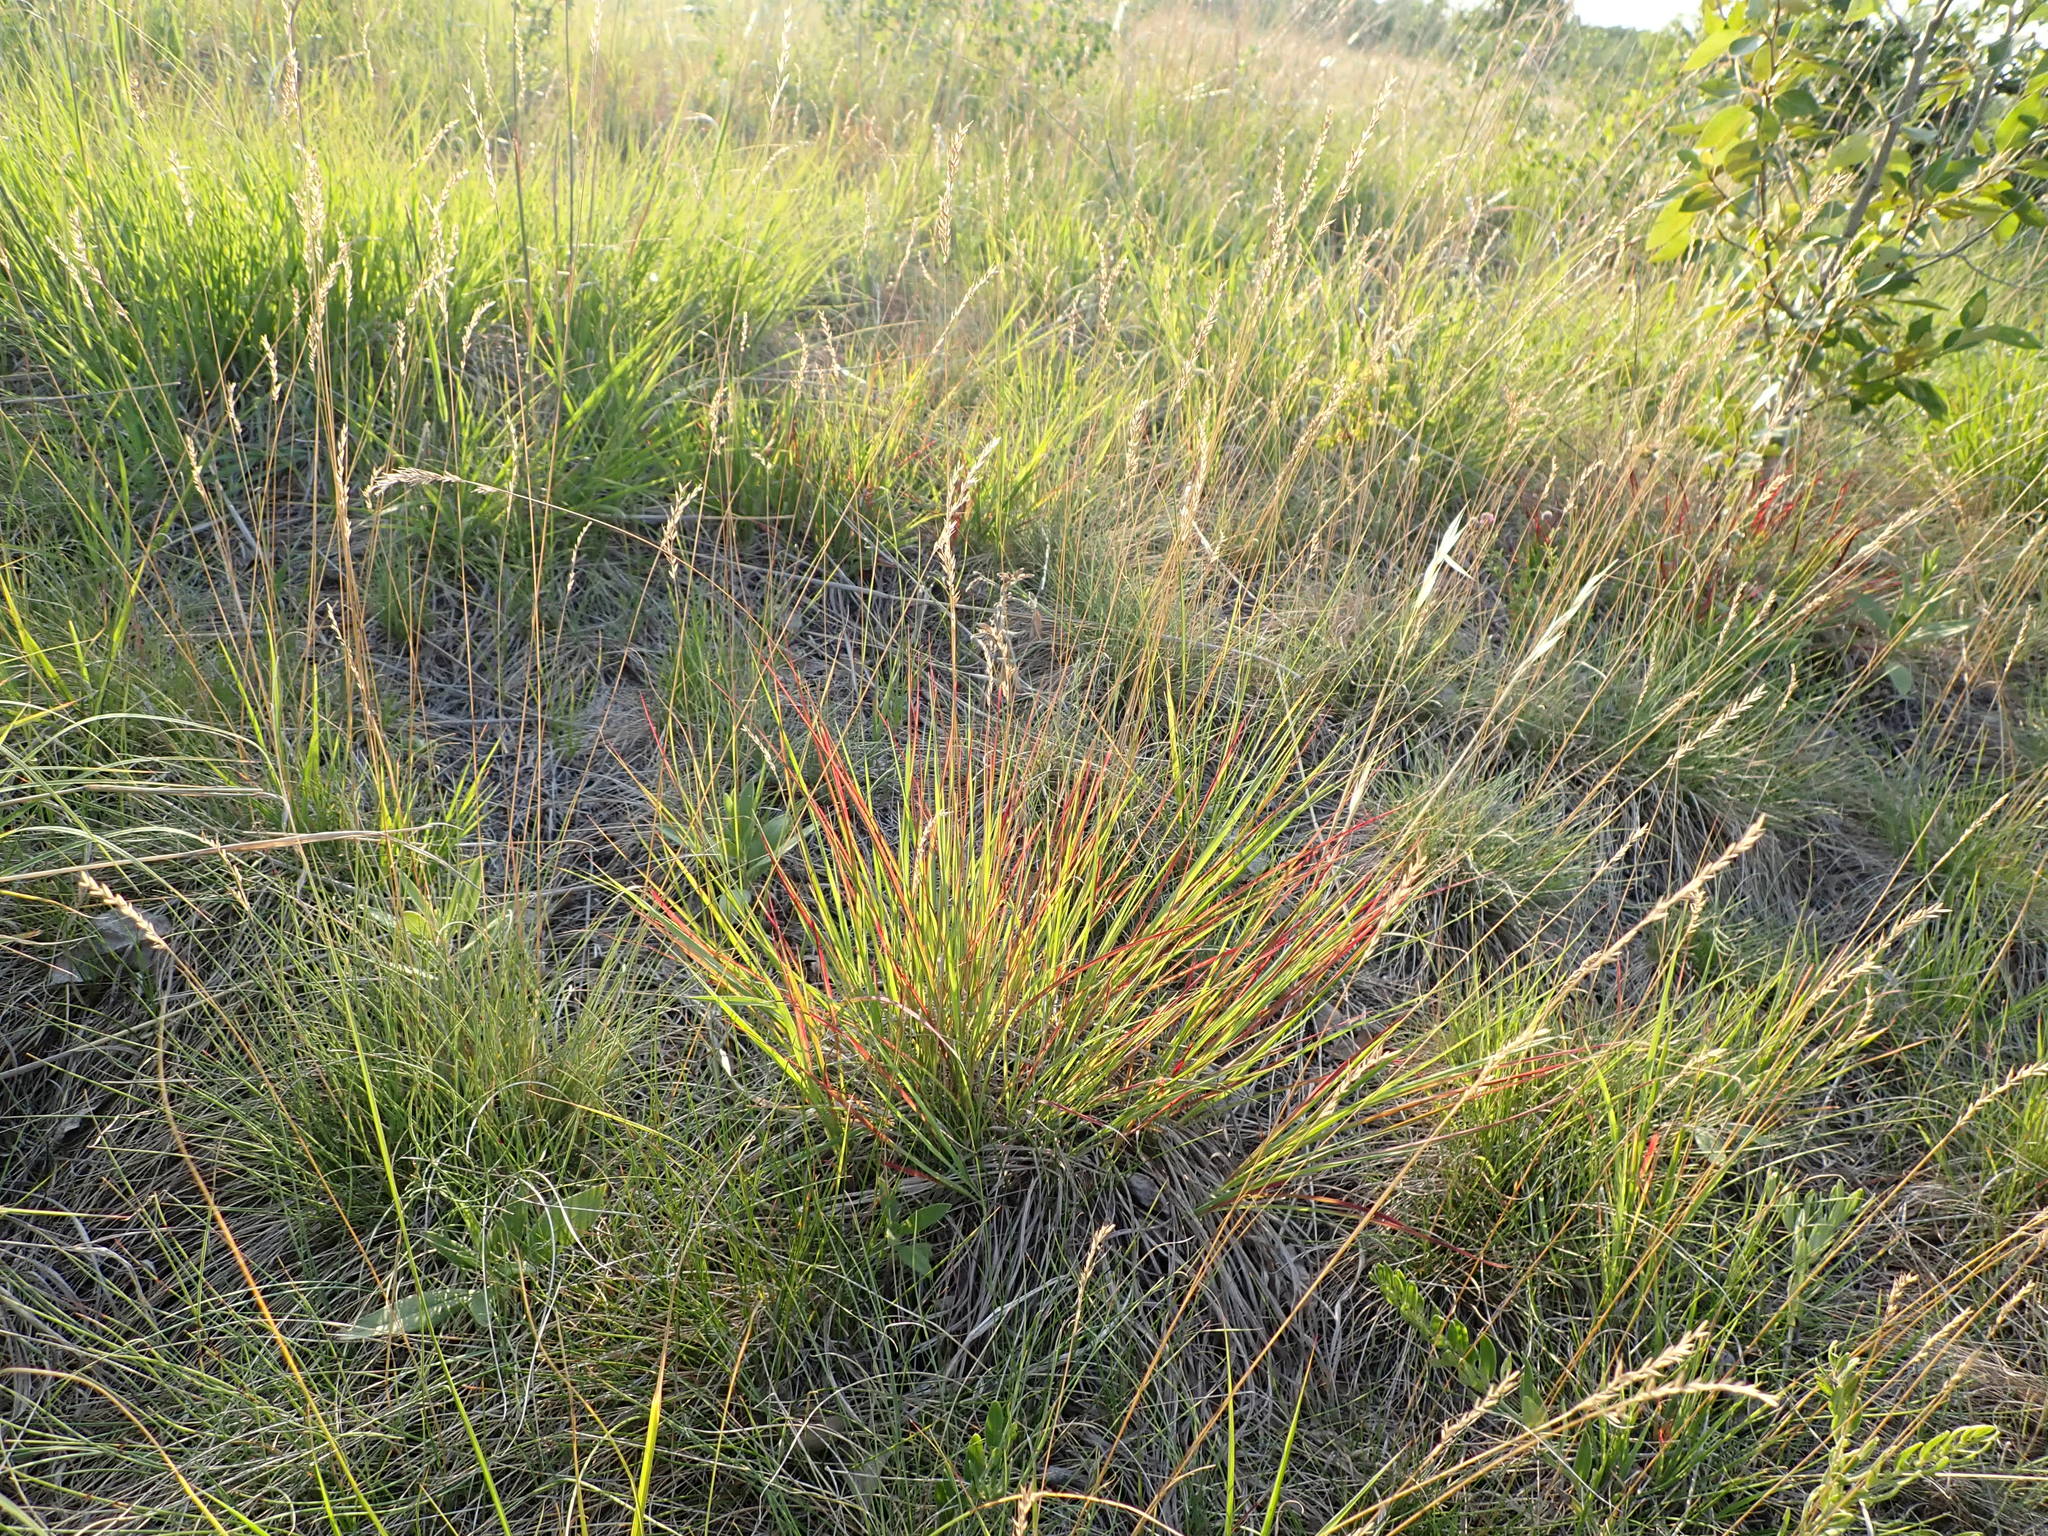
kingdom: Plantae
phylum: Tracheophyta
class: Liliopsida
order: Poales
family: Poaceae
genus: Schizachyrium
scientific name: Schizachyrium scoparium
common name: Little bluestem
